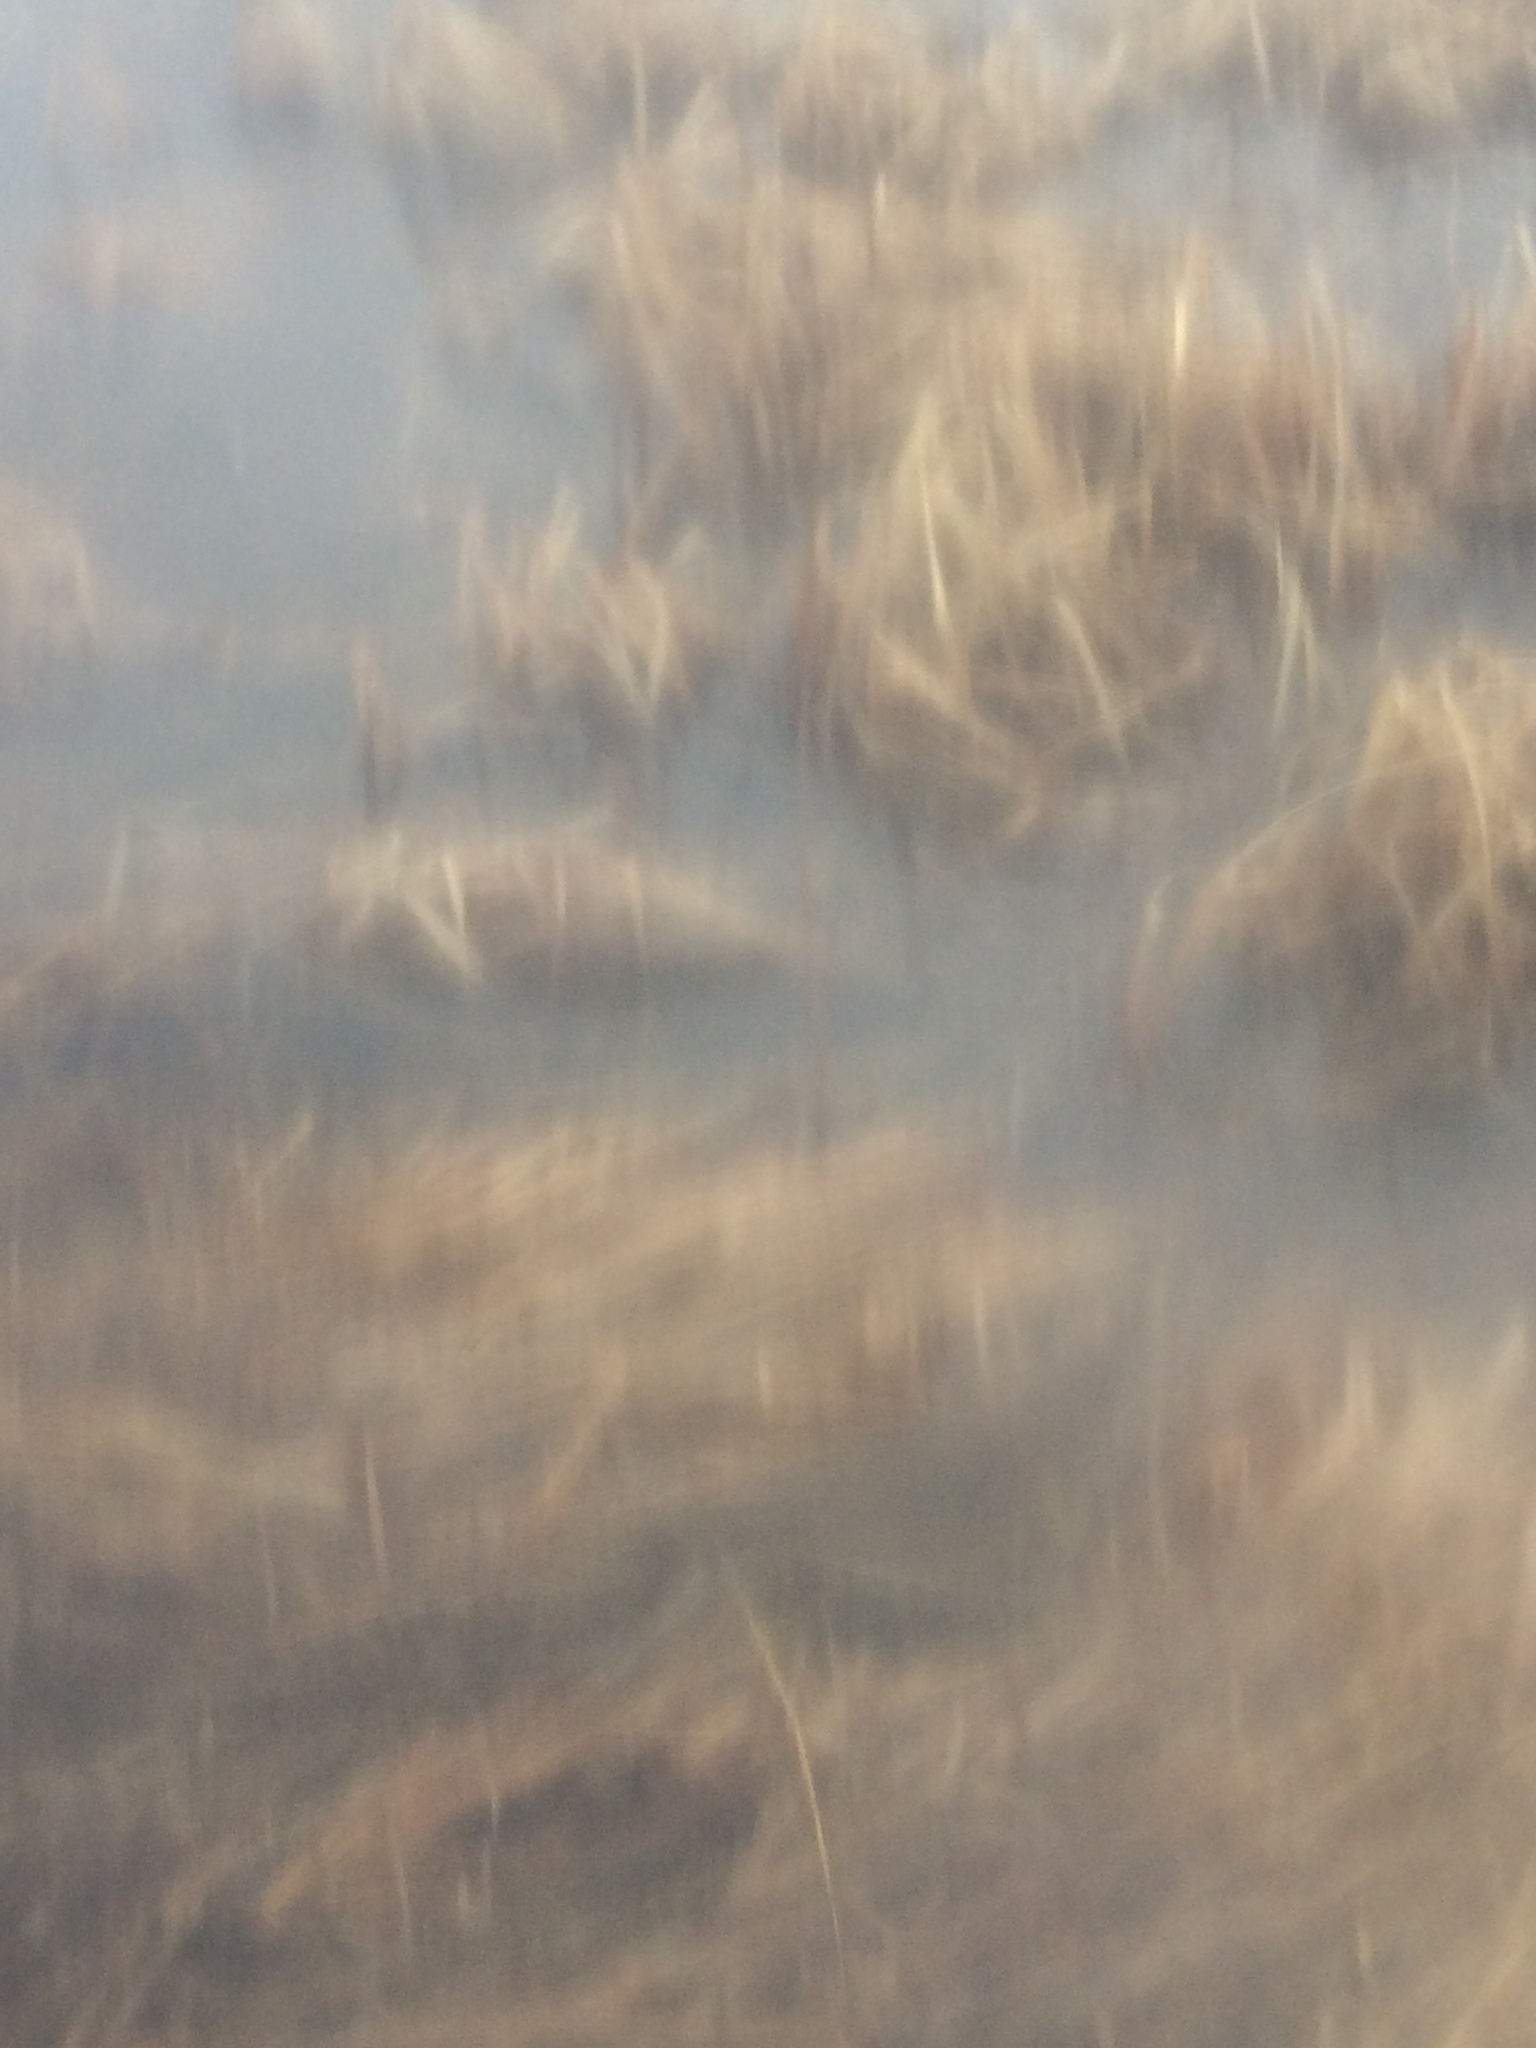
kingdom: Plantae
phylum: Tracheophyta
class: Magnoliopsida
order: Lamiales
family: Verbenaceae
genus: Verbena
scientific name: Verbena hastata
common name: American blue vervain
